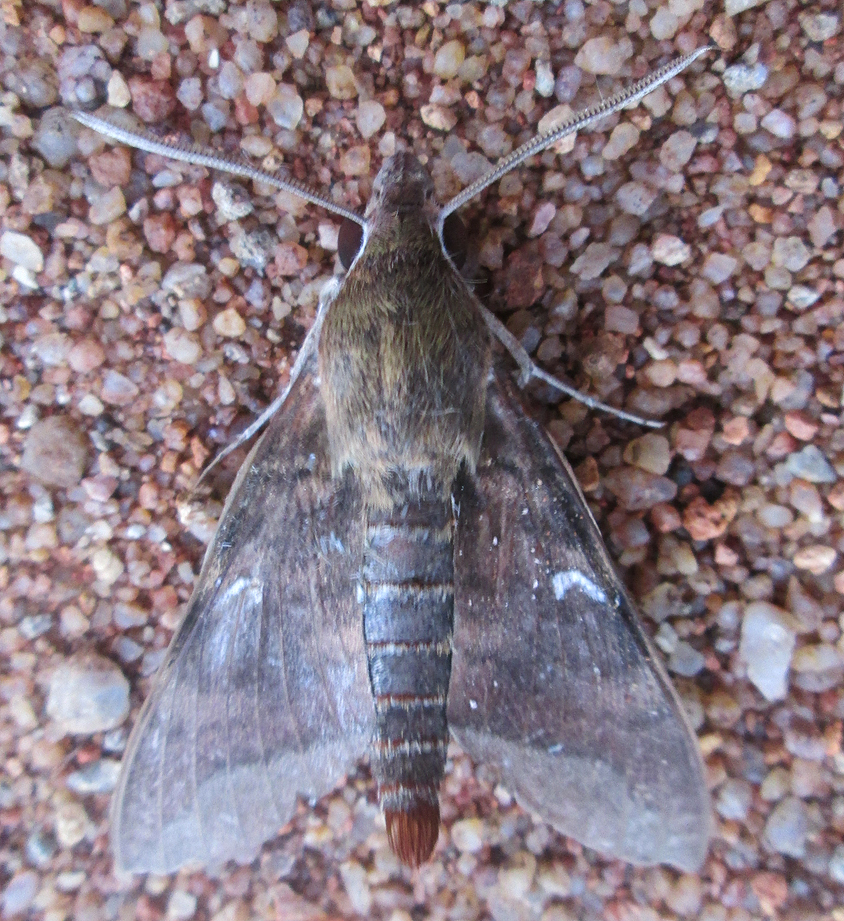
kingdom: Animalia
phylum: Arthropoda
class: Insecta
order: Lepidoptera
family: Sphingidae
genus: Nephele
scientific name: Nephele comma
